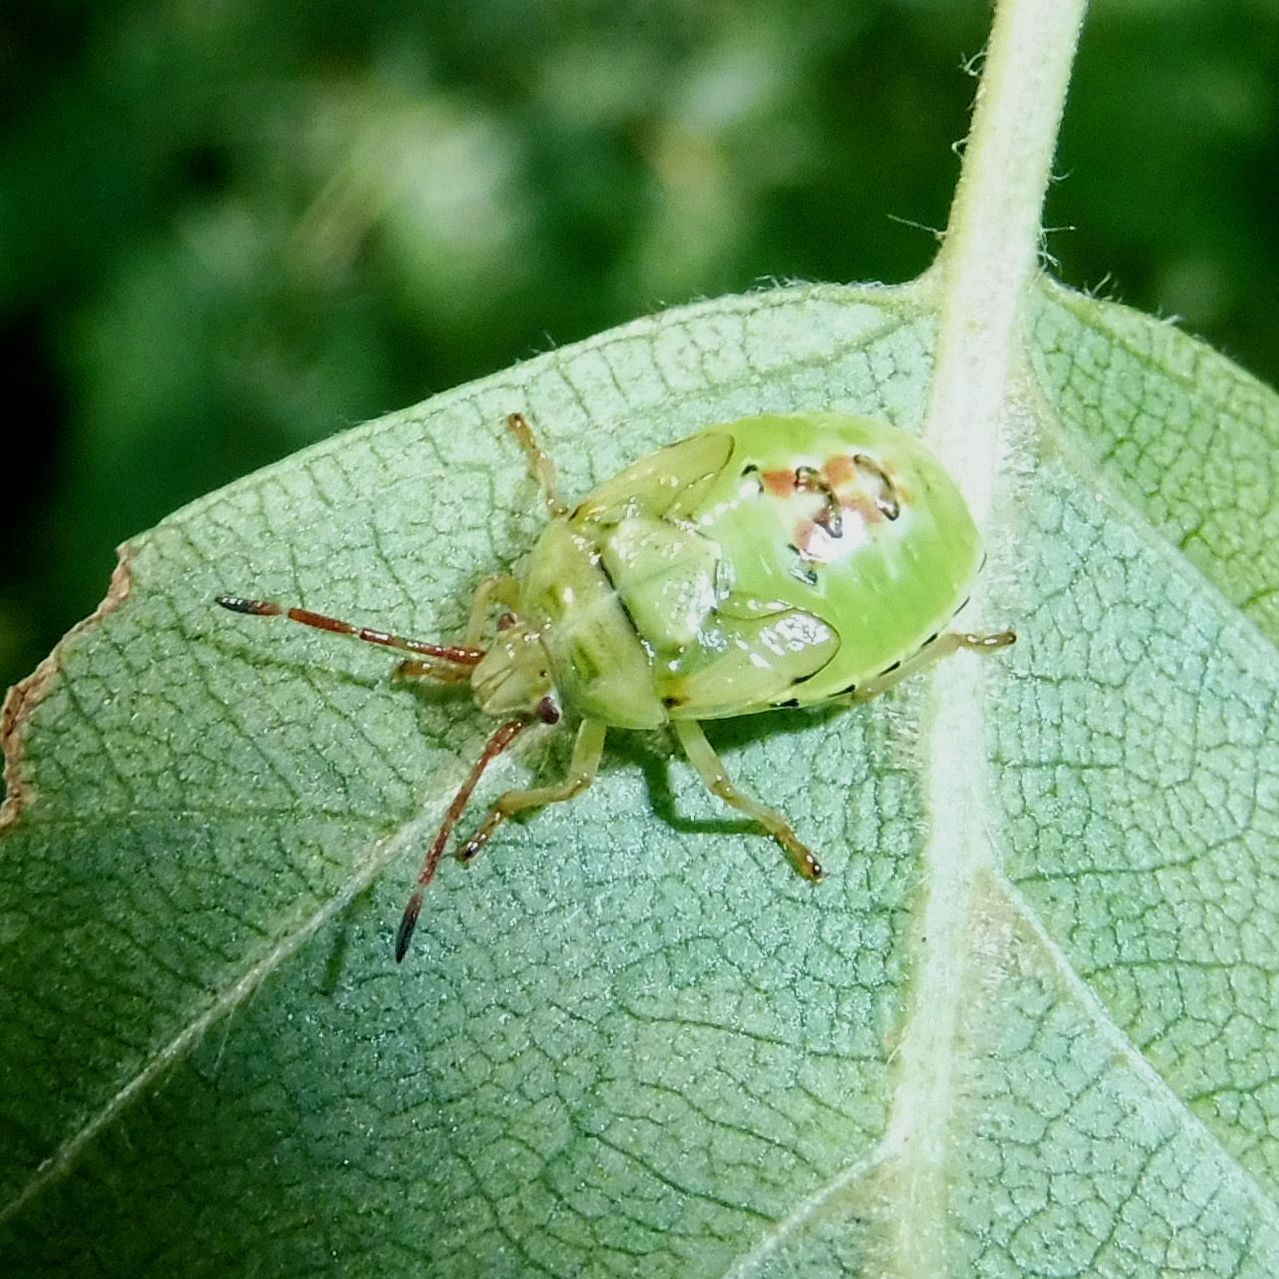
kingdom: Animalia
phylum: Arthropoda
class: Insecta
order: Hemiptera
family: Acanthosomatidae
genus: Elasmostethus
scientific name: Elasmostethus interstinctus
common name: Birch shieldbug
